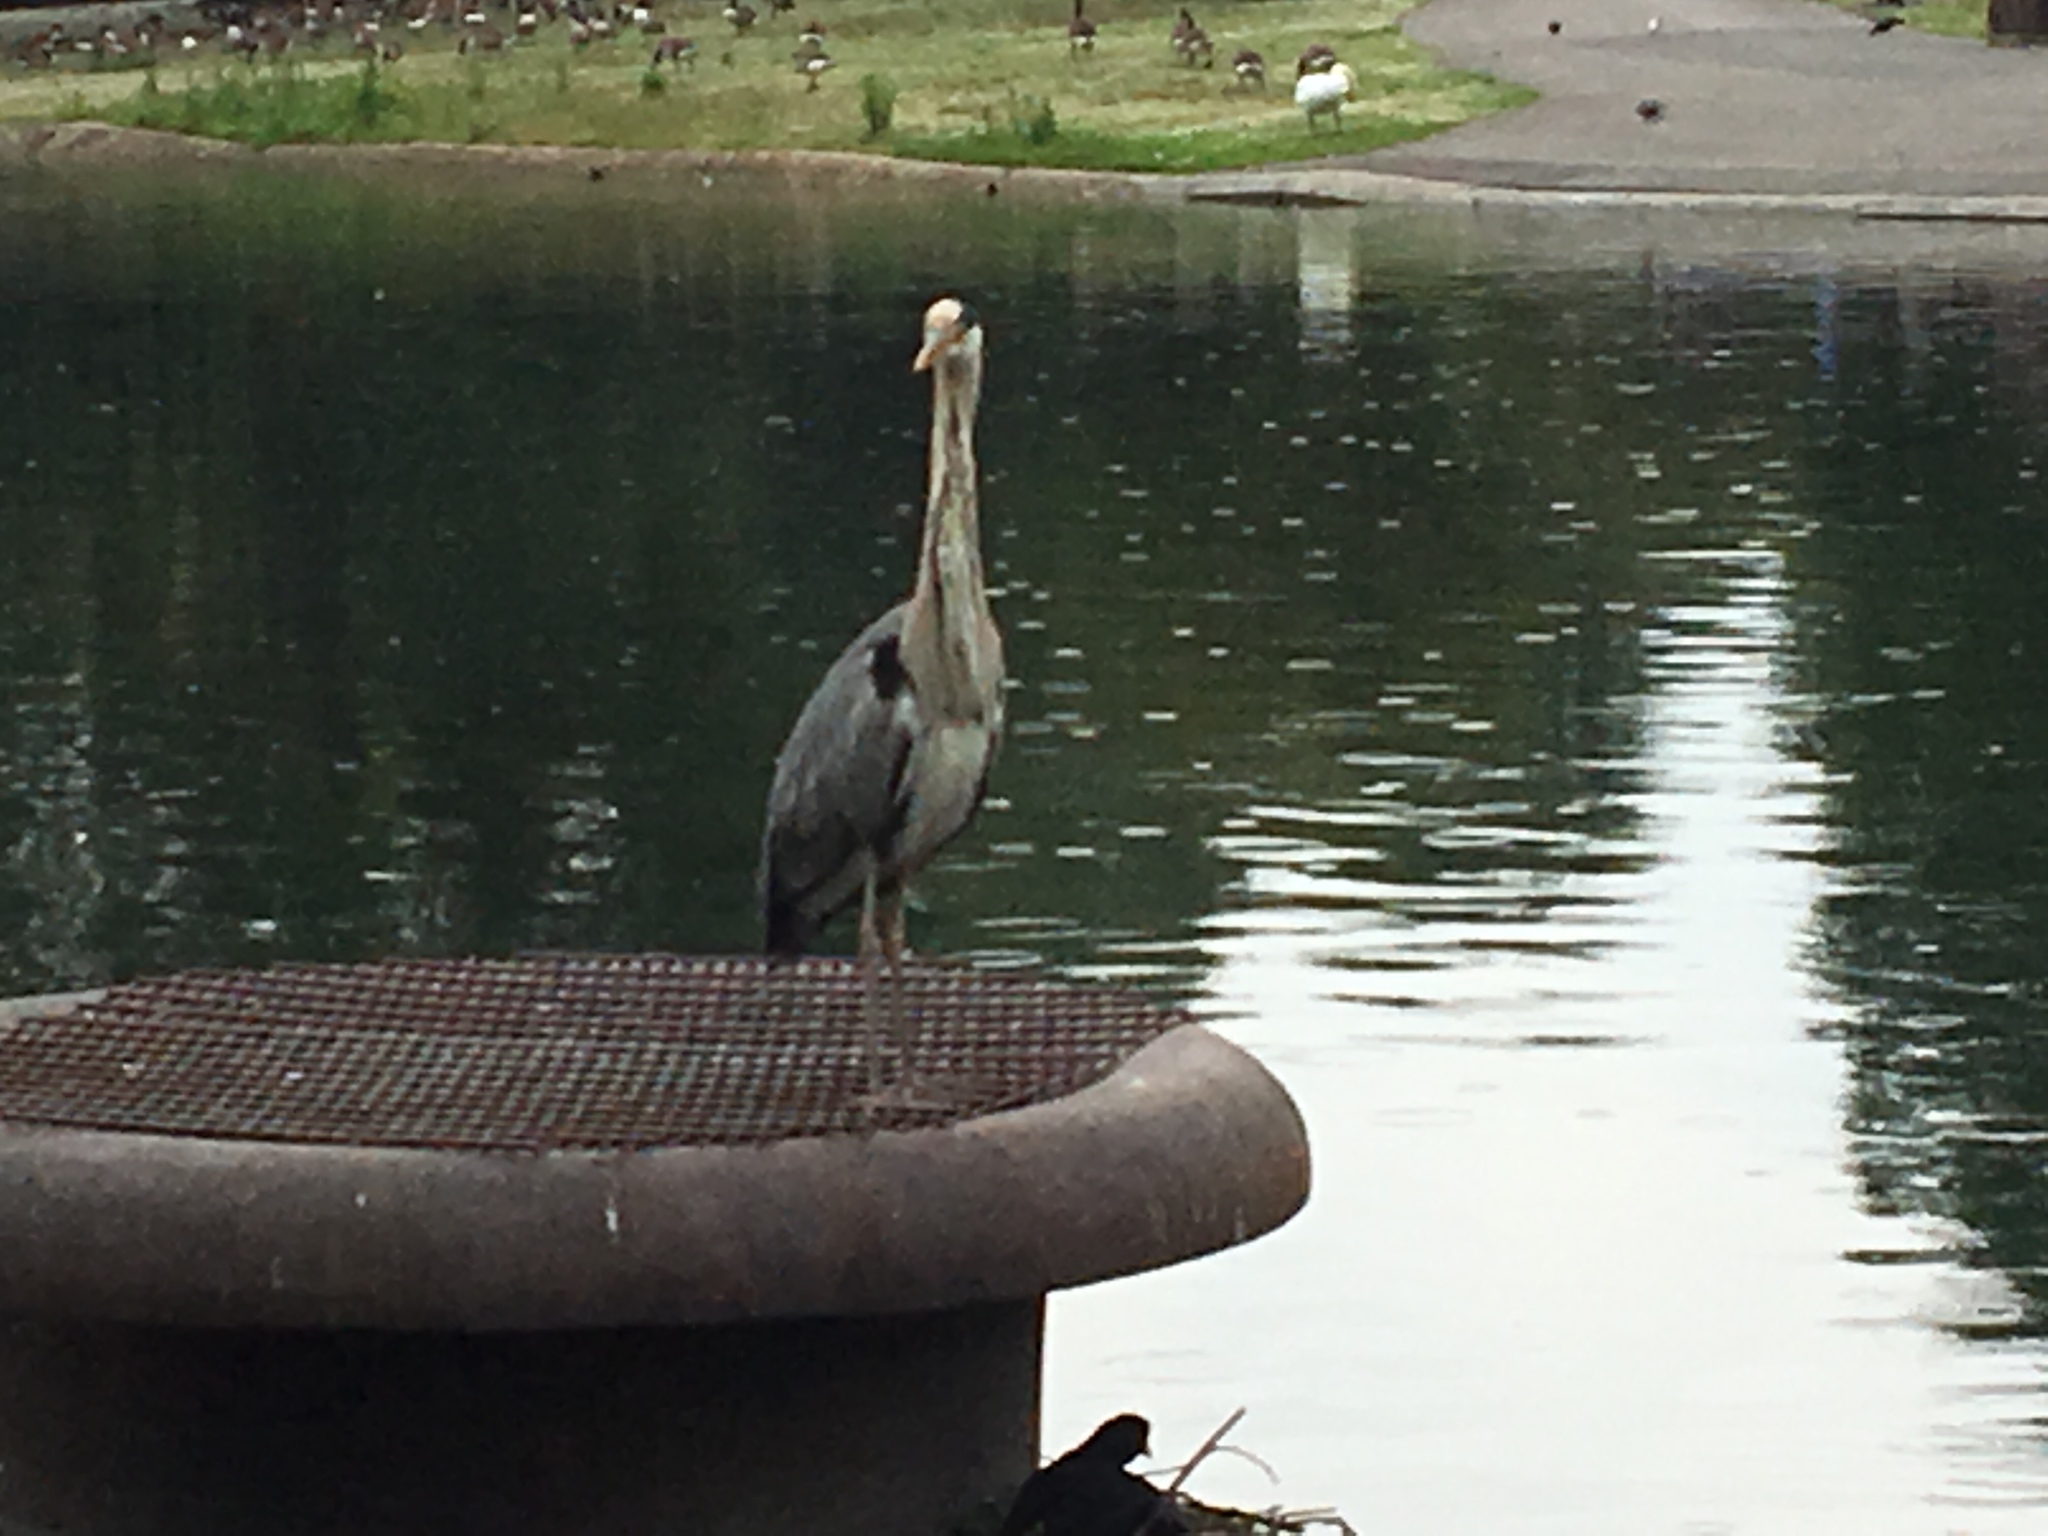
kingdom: Animalia
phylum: Chordata
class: Aves
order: Pelecaniformes
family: Ardeidae
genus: Ardea
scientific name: Ardea cinerea
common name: Grey heron
